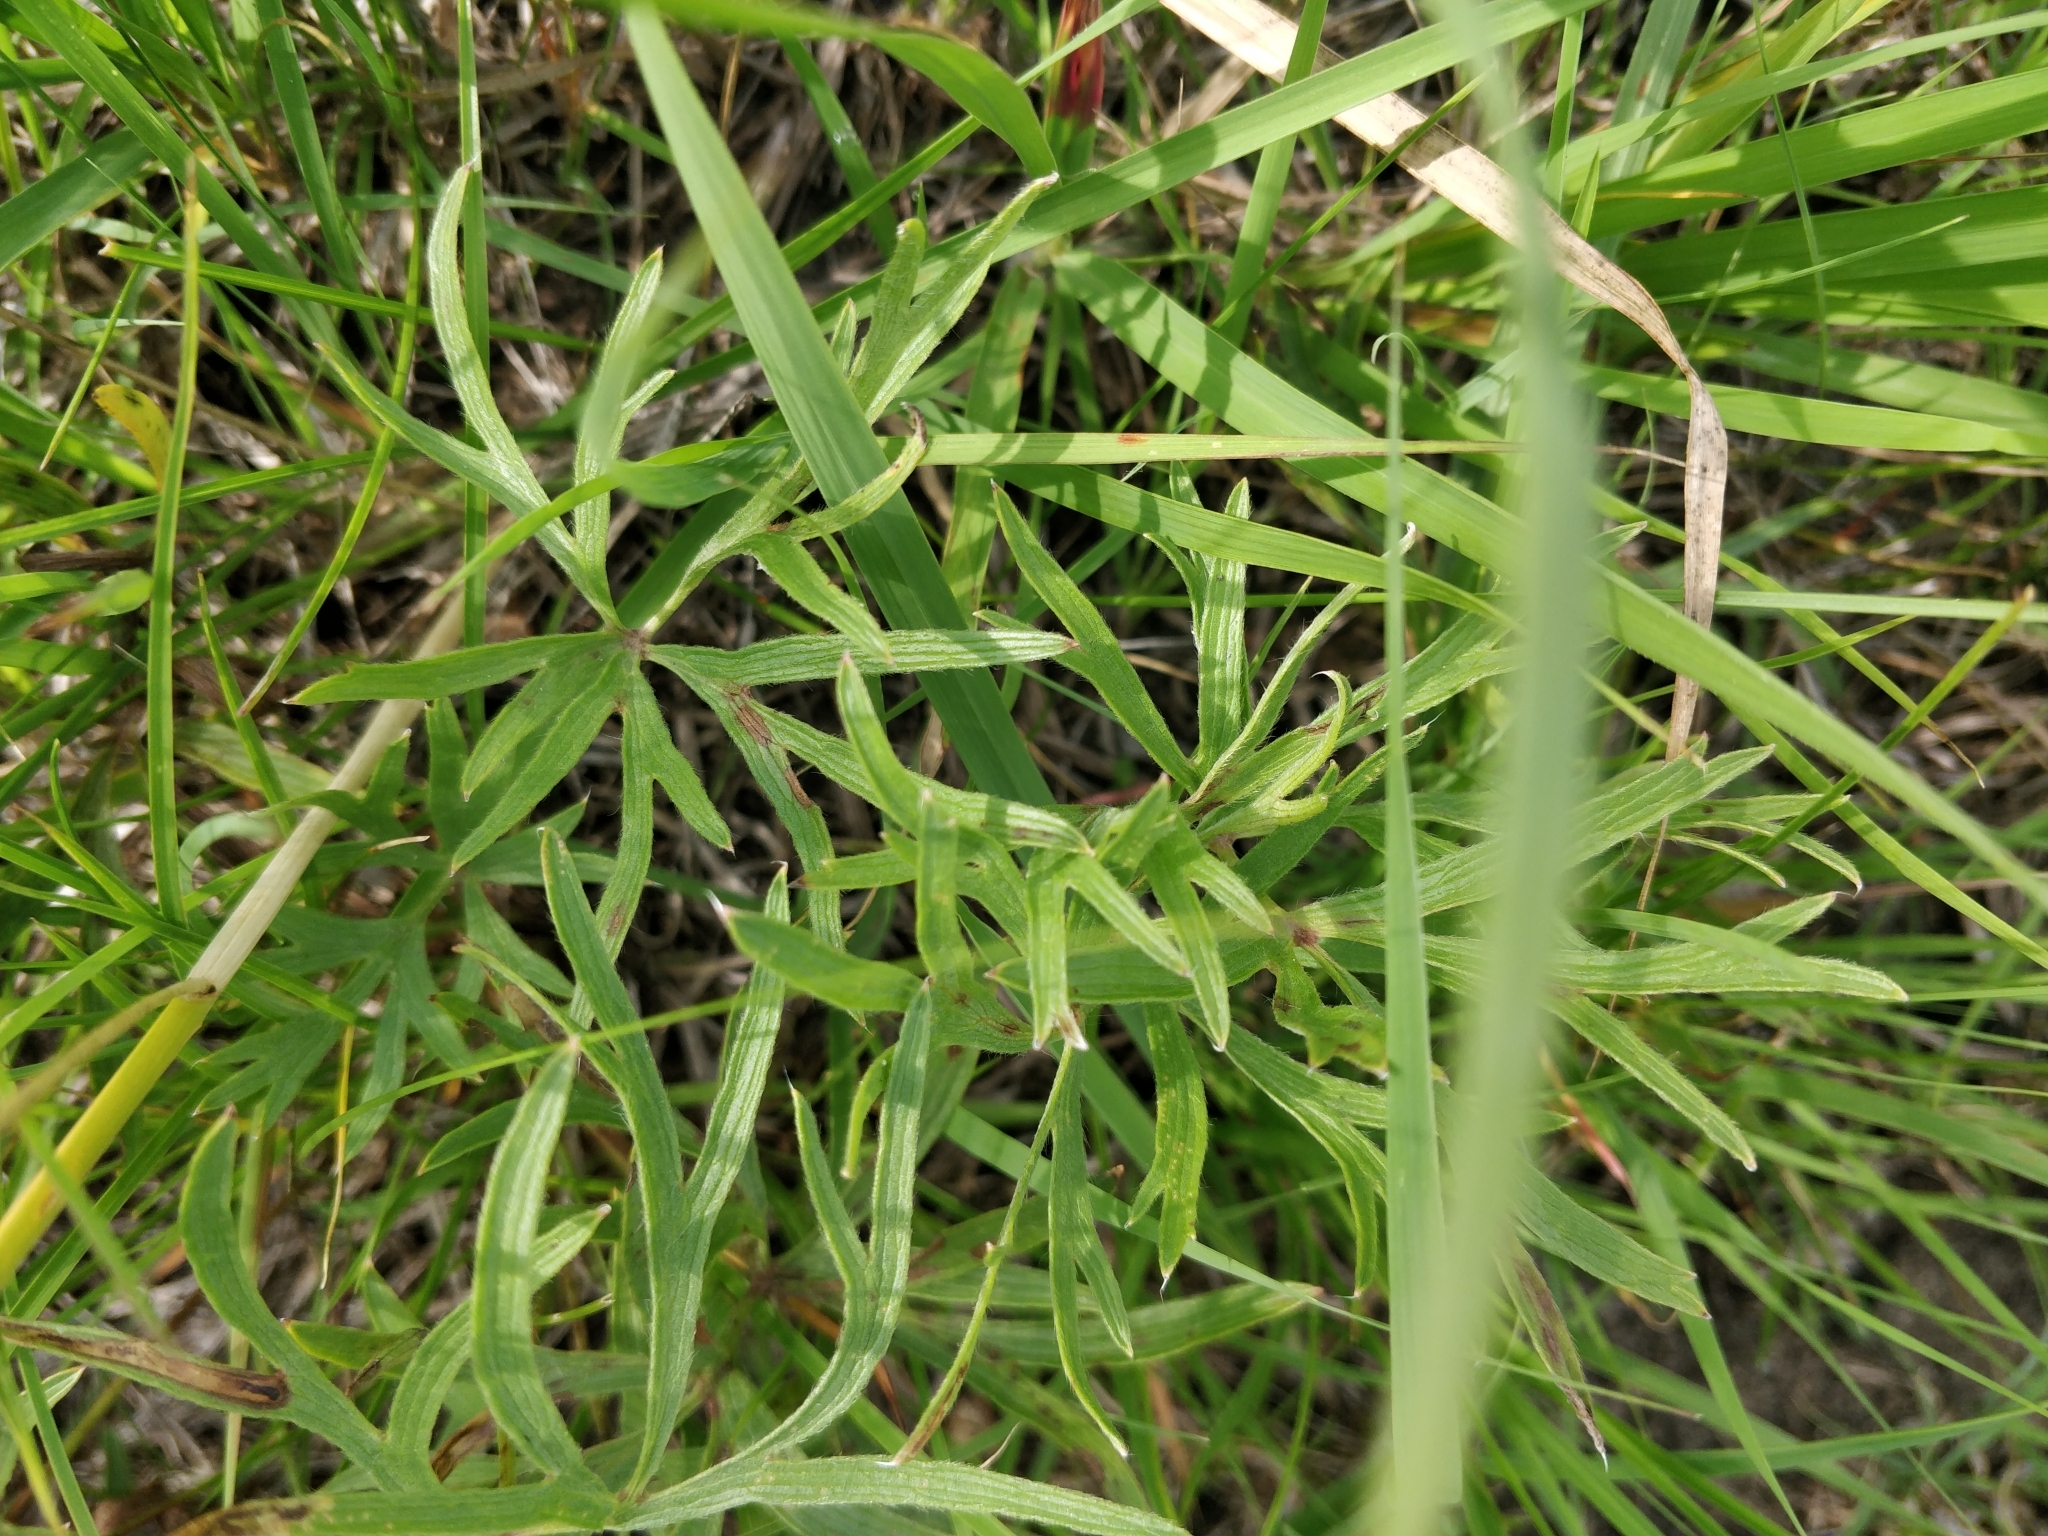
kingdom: Plantae
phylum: Tracheophyta
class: Magnoliopsida
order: Ranunculales
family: Ranunculaceae
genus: Pulsatilla
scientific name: Pulsatilla nuttalliana
